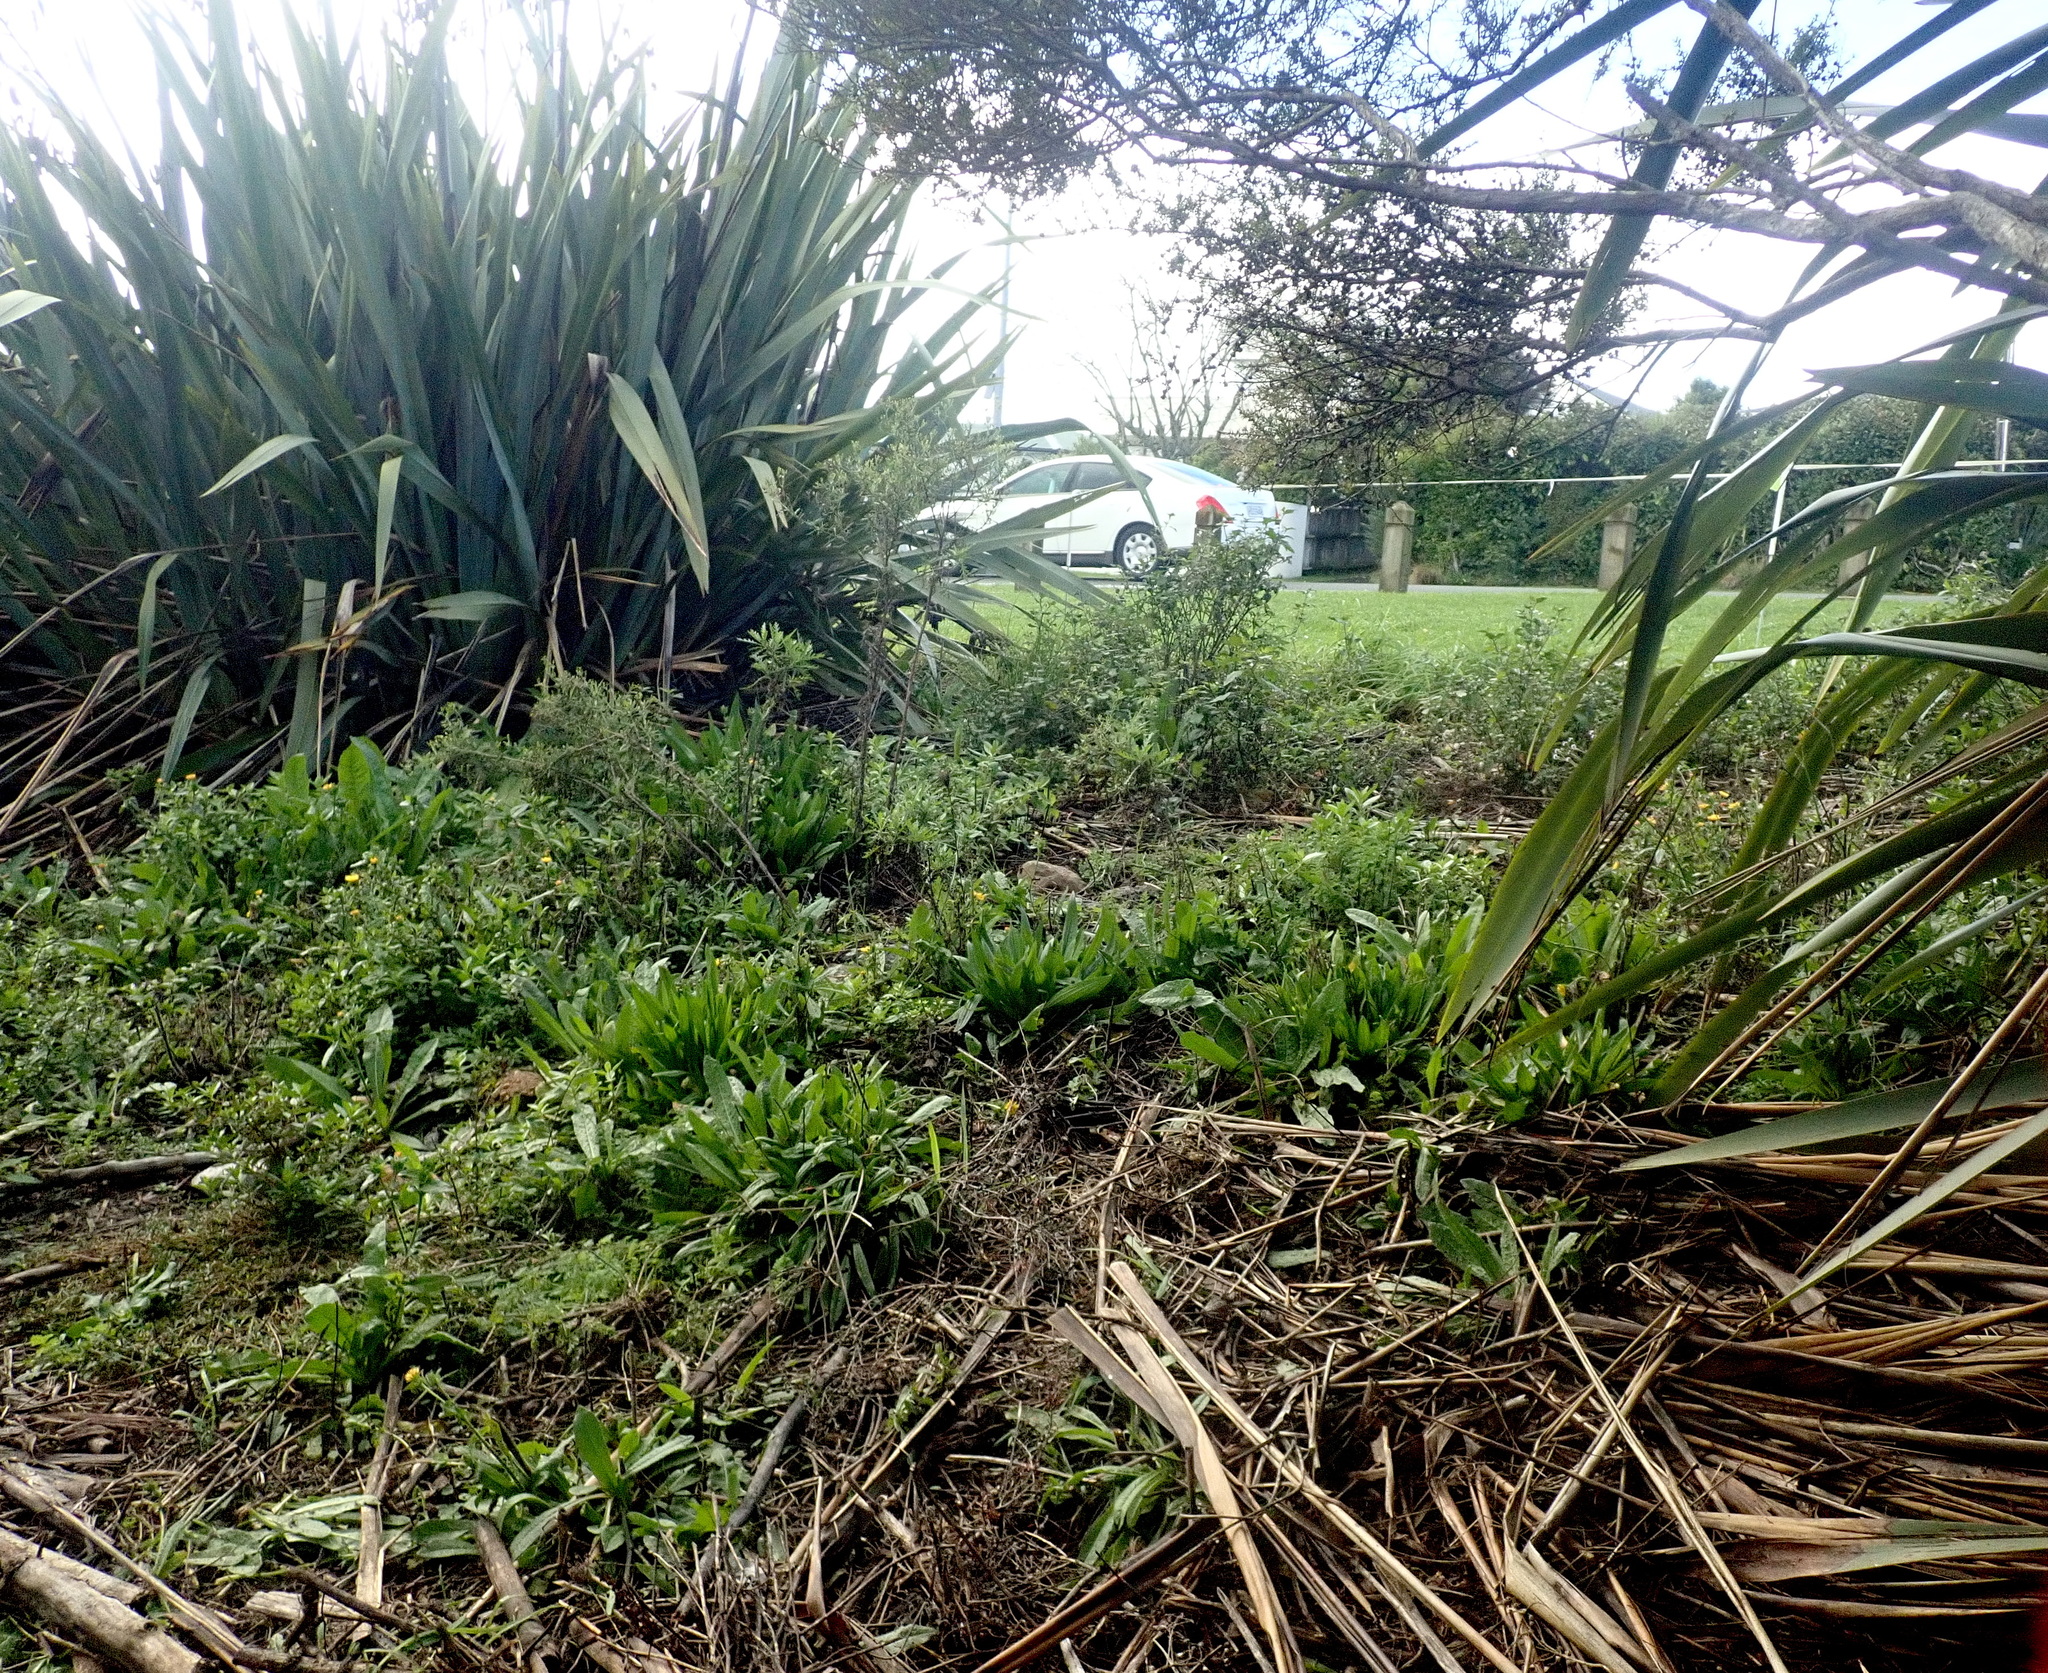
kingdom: Plantae
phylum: Tracheophyta
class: Magnoliopsida
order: Asterales
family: Asteraceae
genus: Helminthotheca
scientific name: Helminthotheca echioides
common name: Ox-tongue
